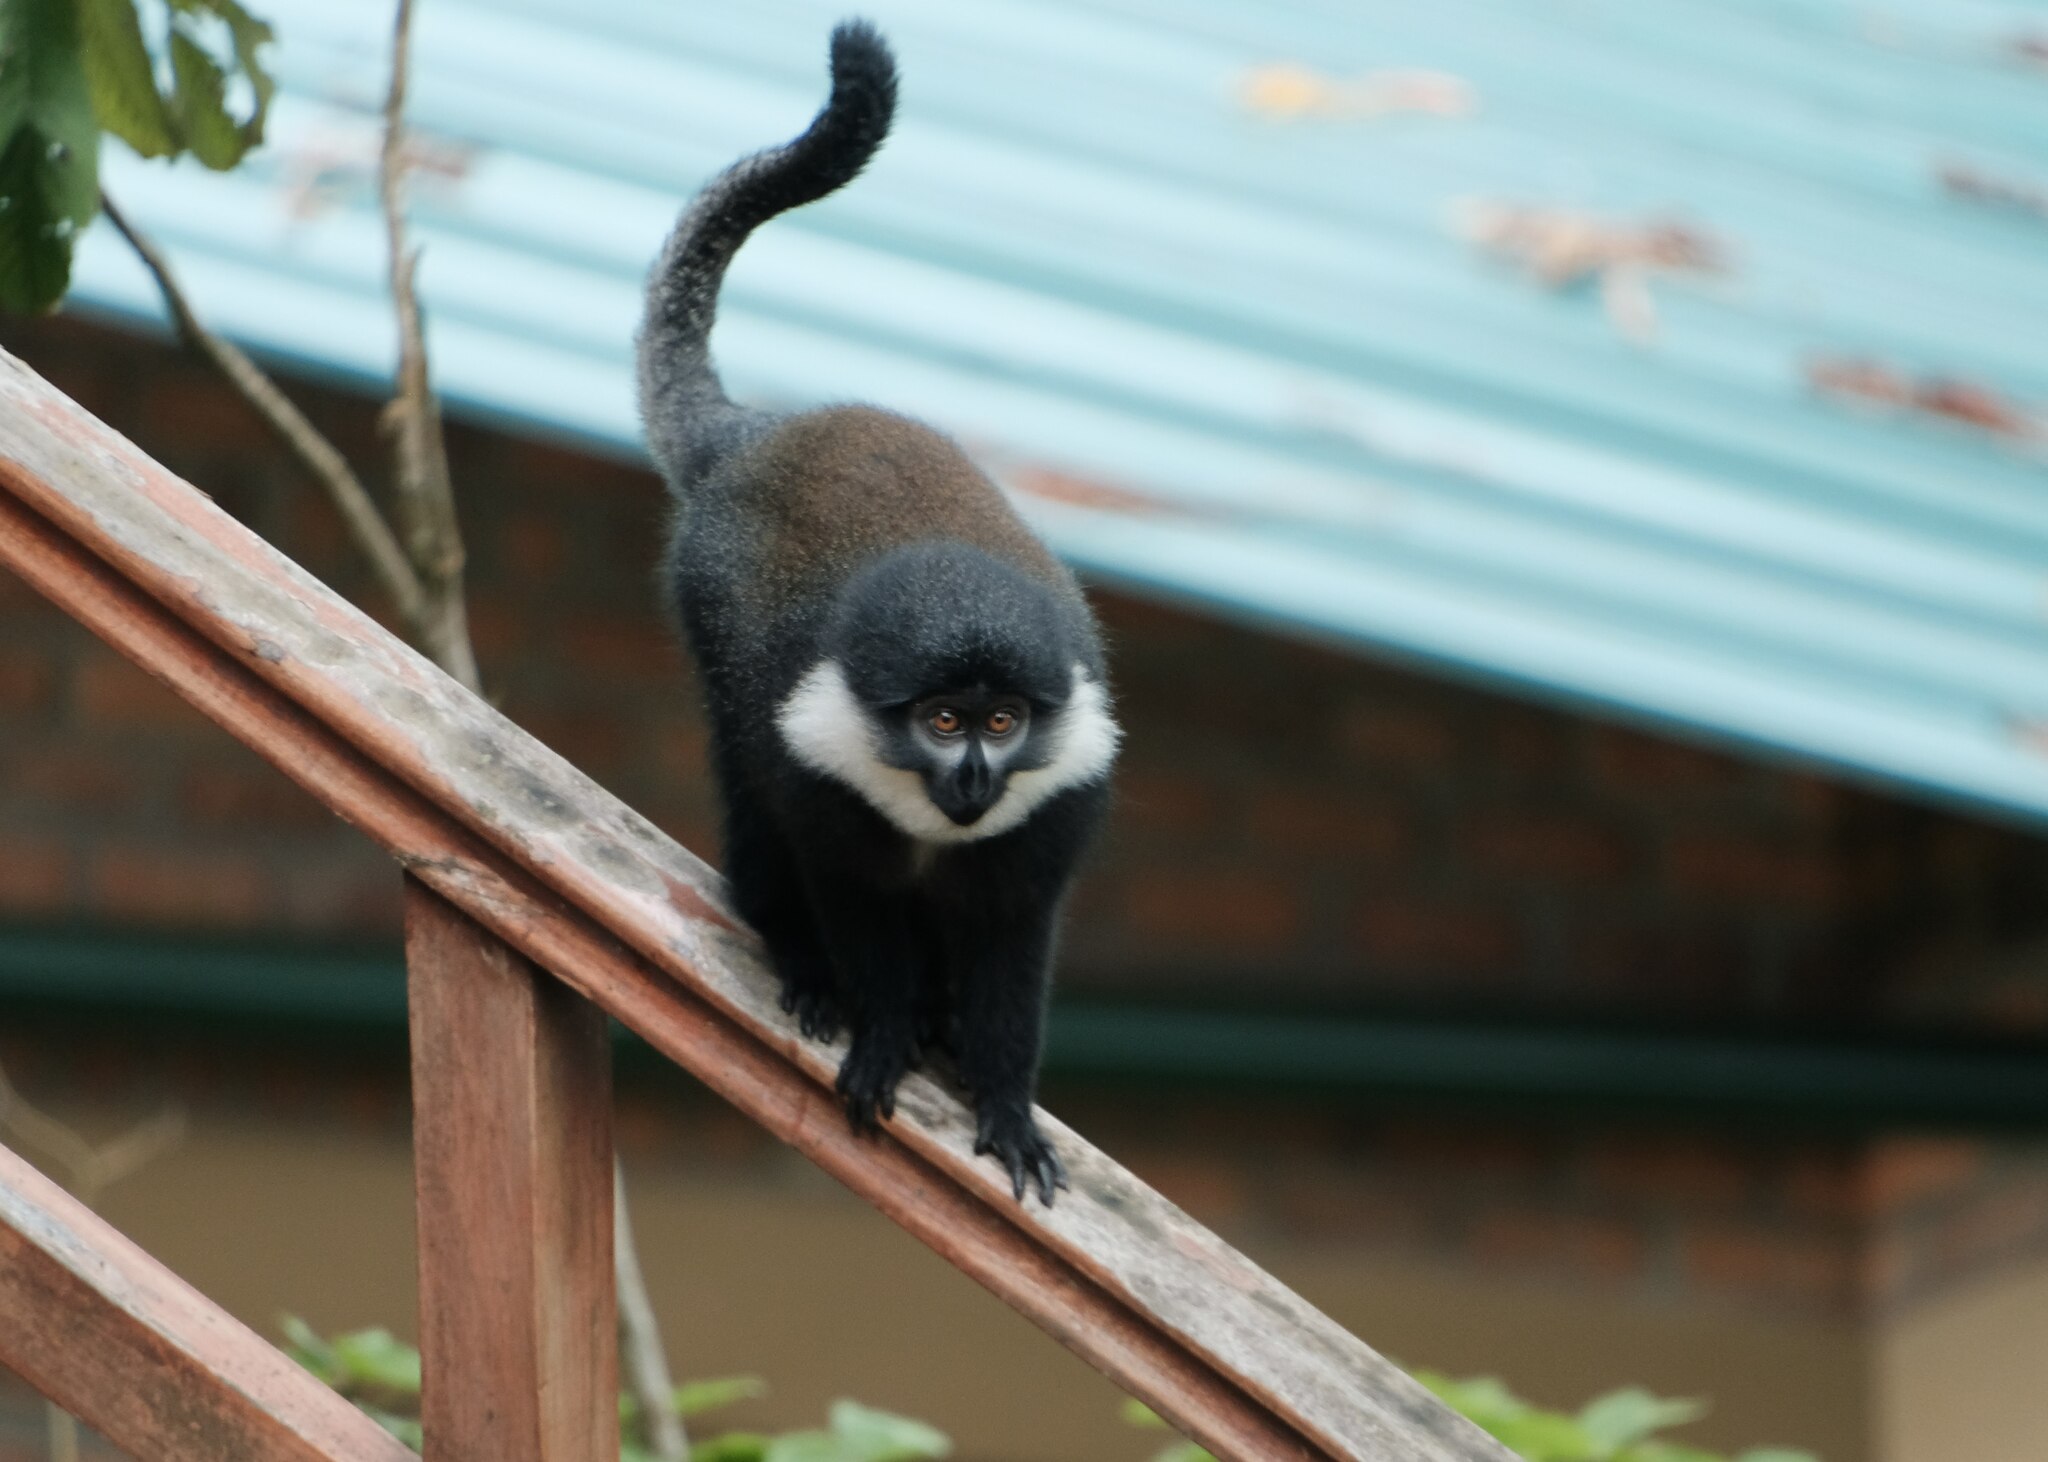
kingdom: Animalia
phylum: Chordata
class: Mammalia
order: Primates
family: Cercopithecidae
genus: Allochrocebus
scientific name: Allochrocebus lhoesti
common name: L'hoest's monkey
